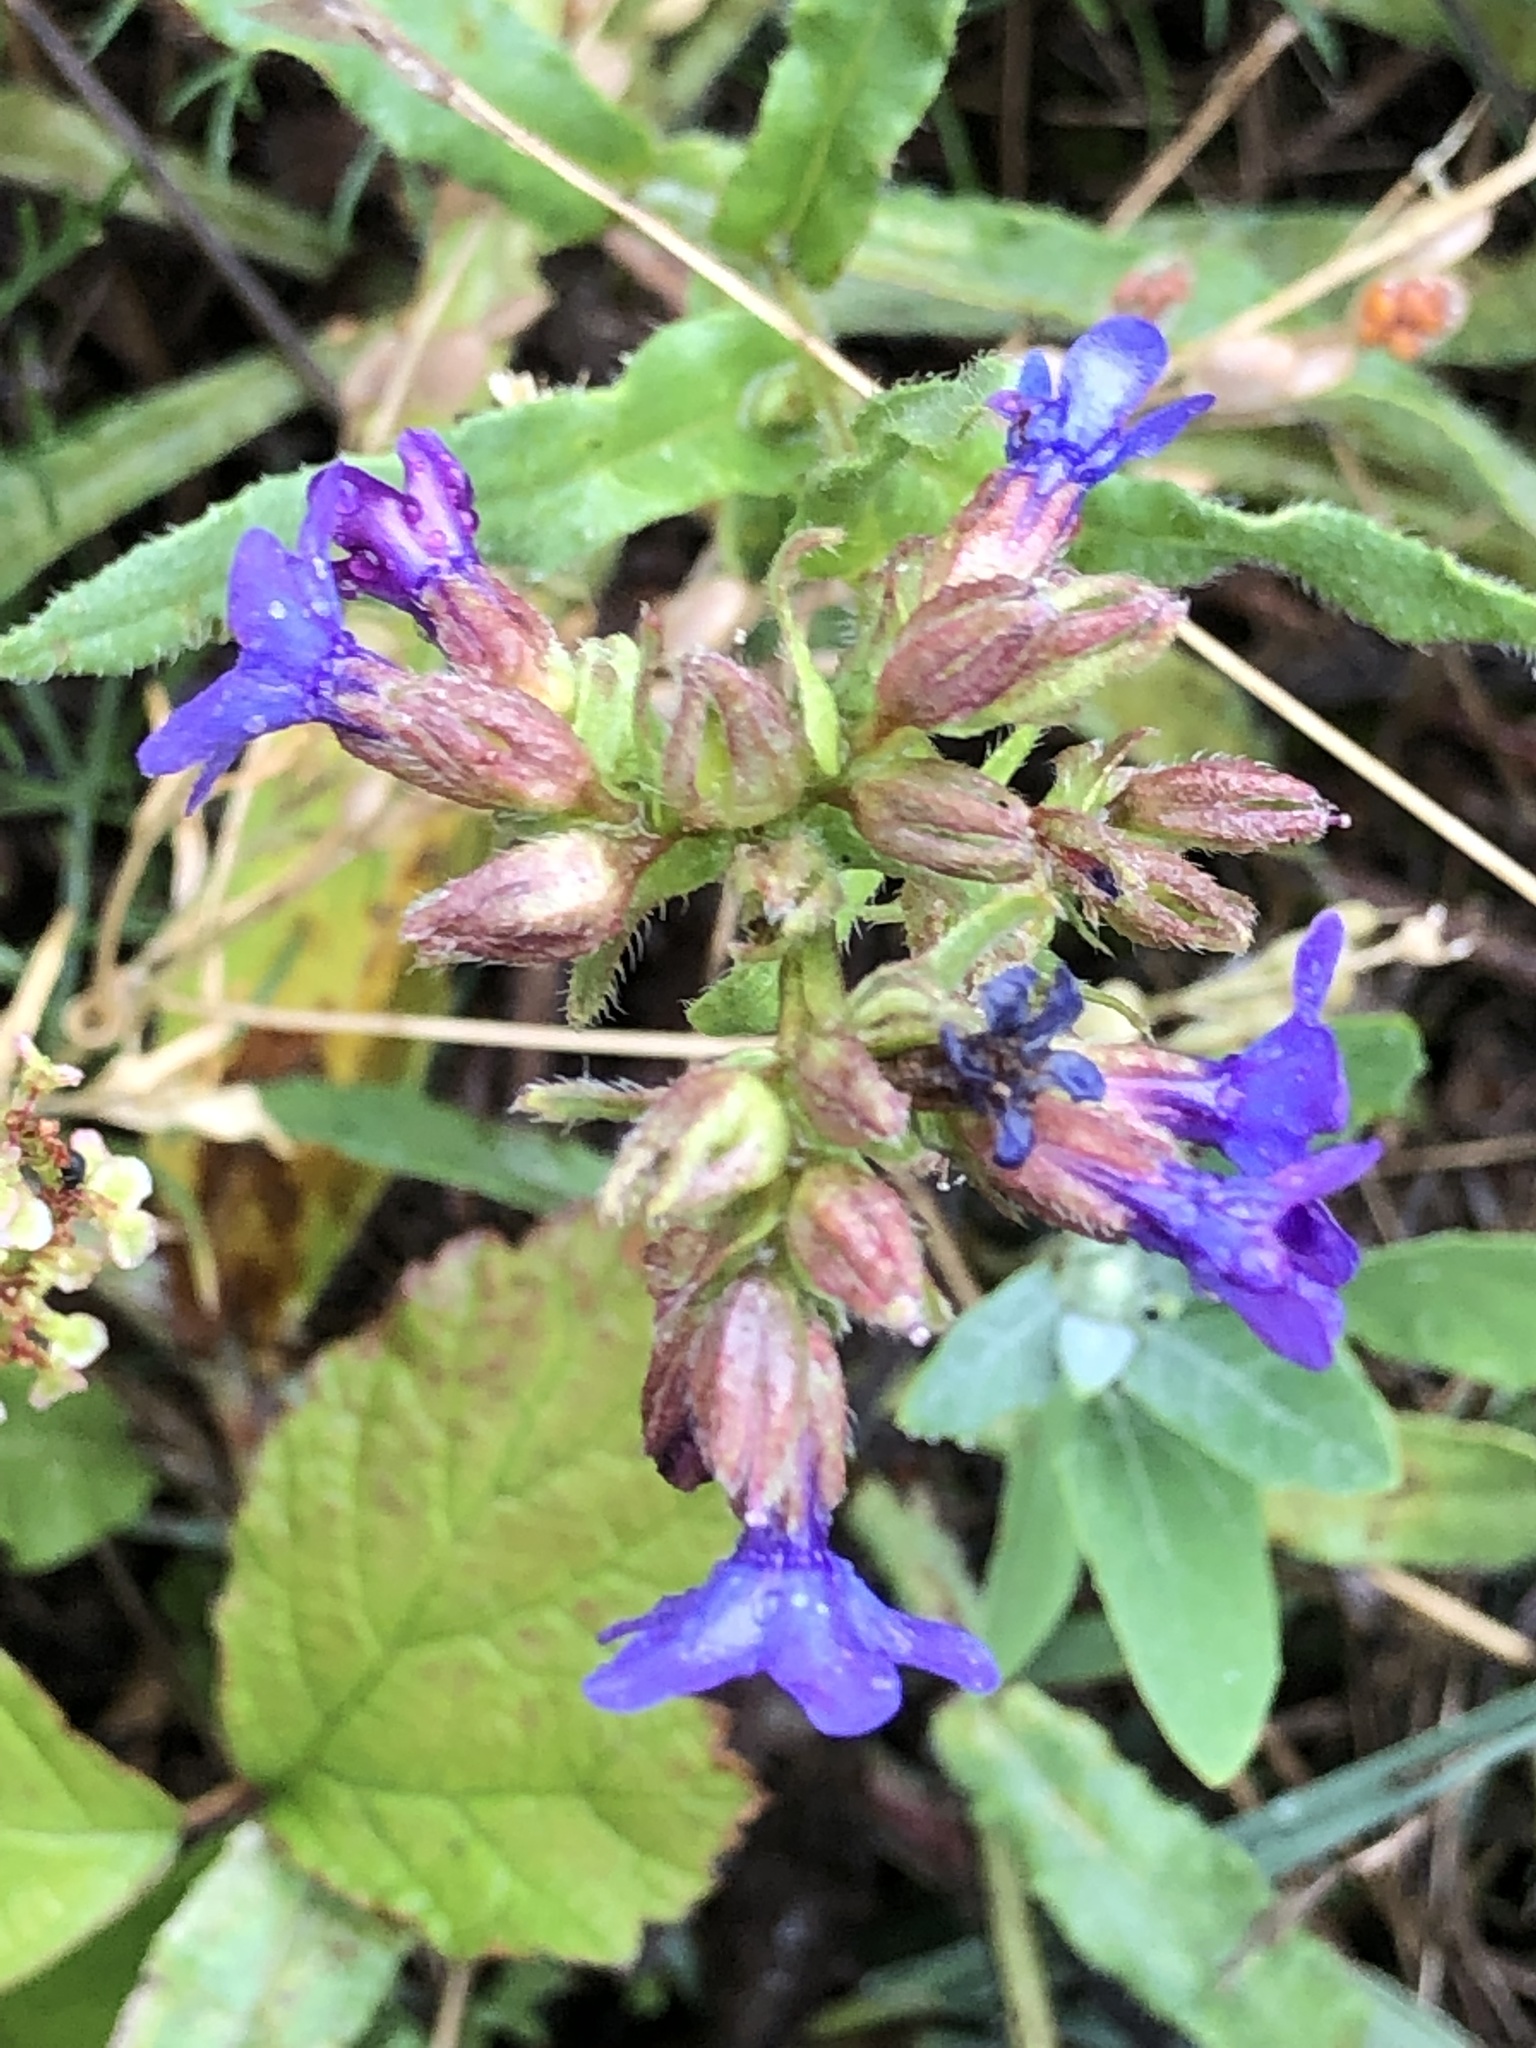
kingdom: Plantae
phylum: Tracheophyta
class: Magnoliopsida
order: Boraginales
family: Boraginaceae
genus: Anchusa
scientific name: Anchusa officinalis
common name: Alkanet
